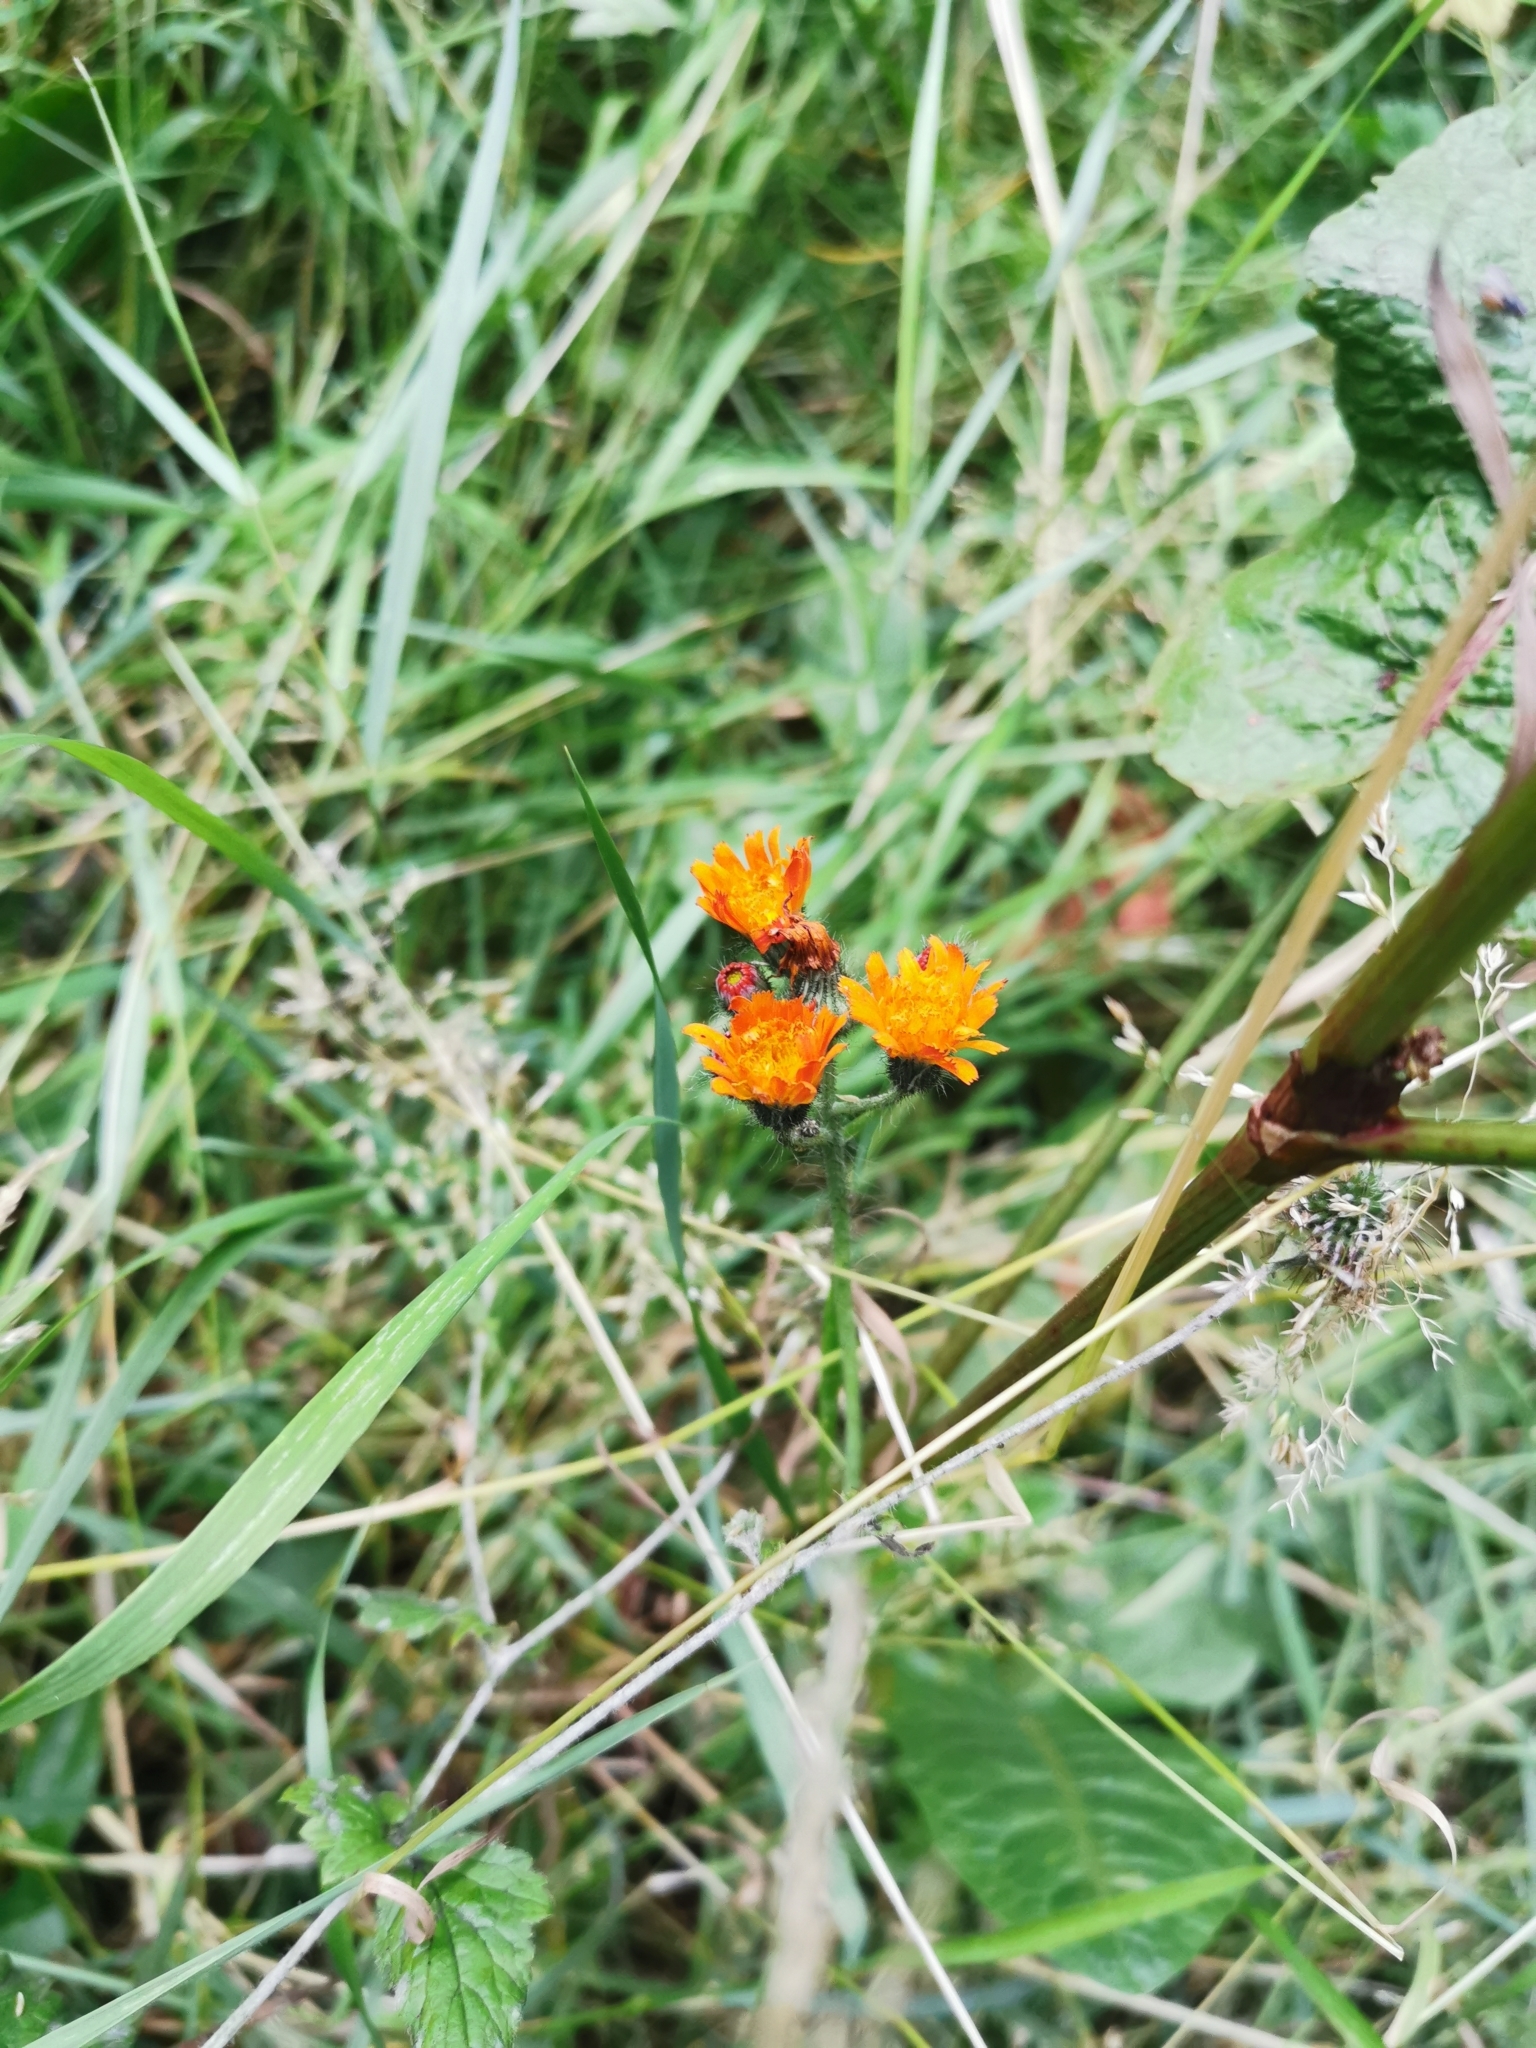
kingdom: Plantae
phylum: Tracheophyta
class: Magnoliopsida
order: Asterales
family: Asteraceae
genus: Pilosella
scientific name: Pilosella aurantiaca
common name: Fox-and-cubs
